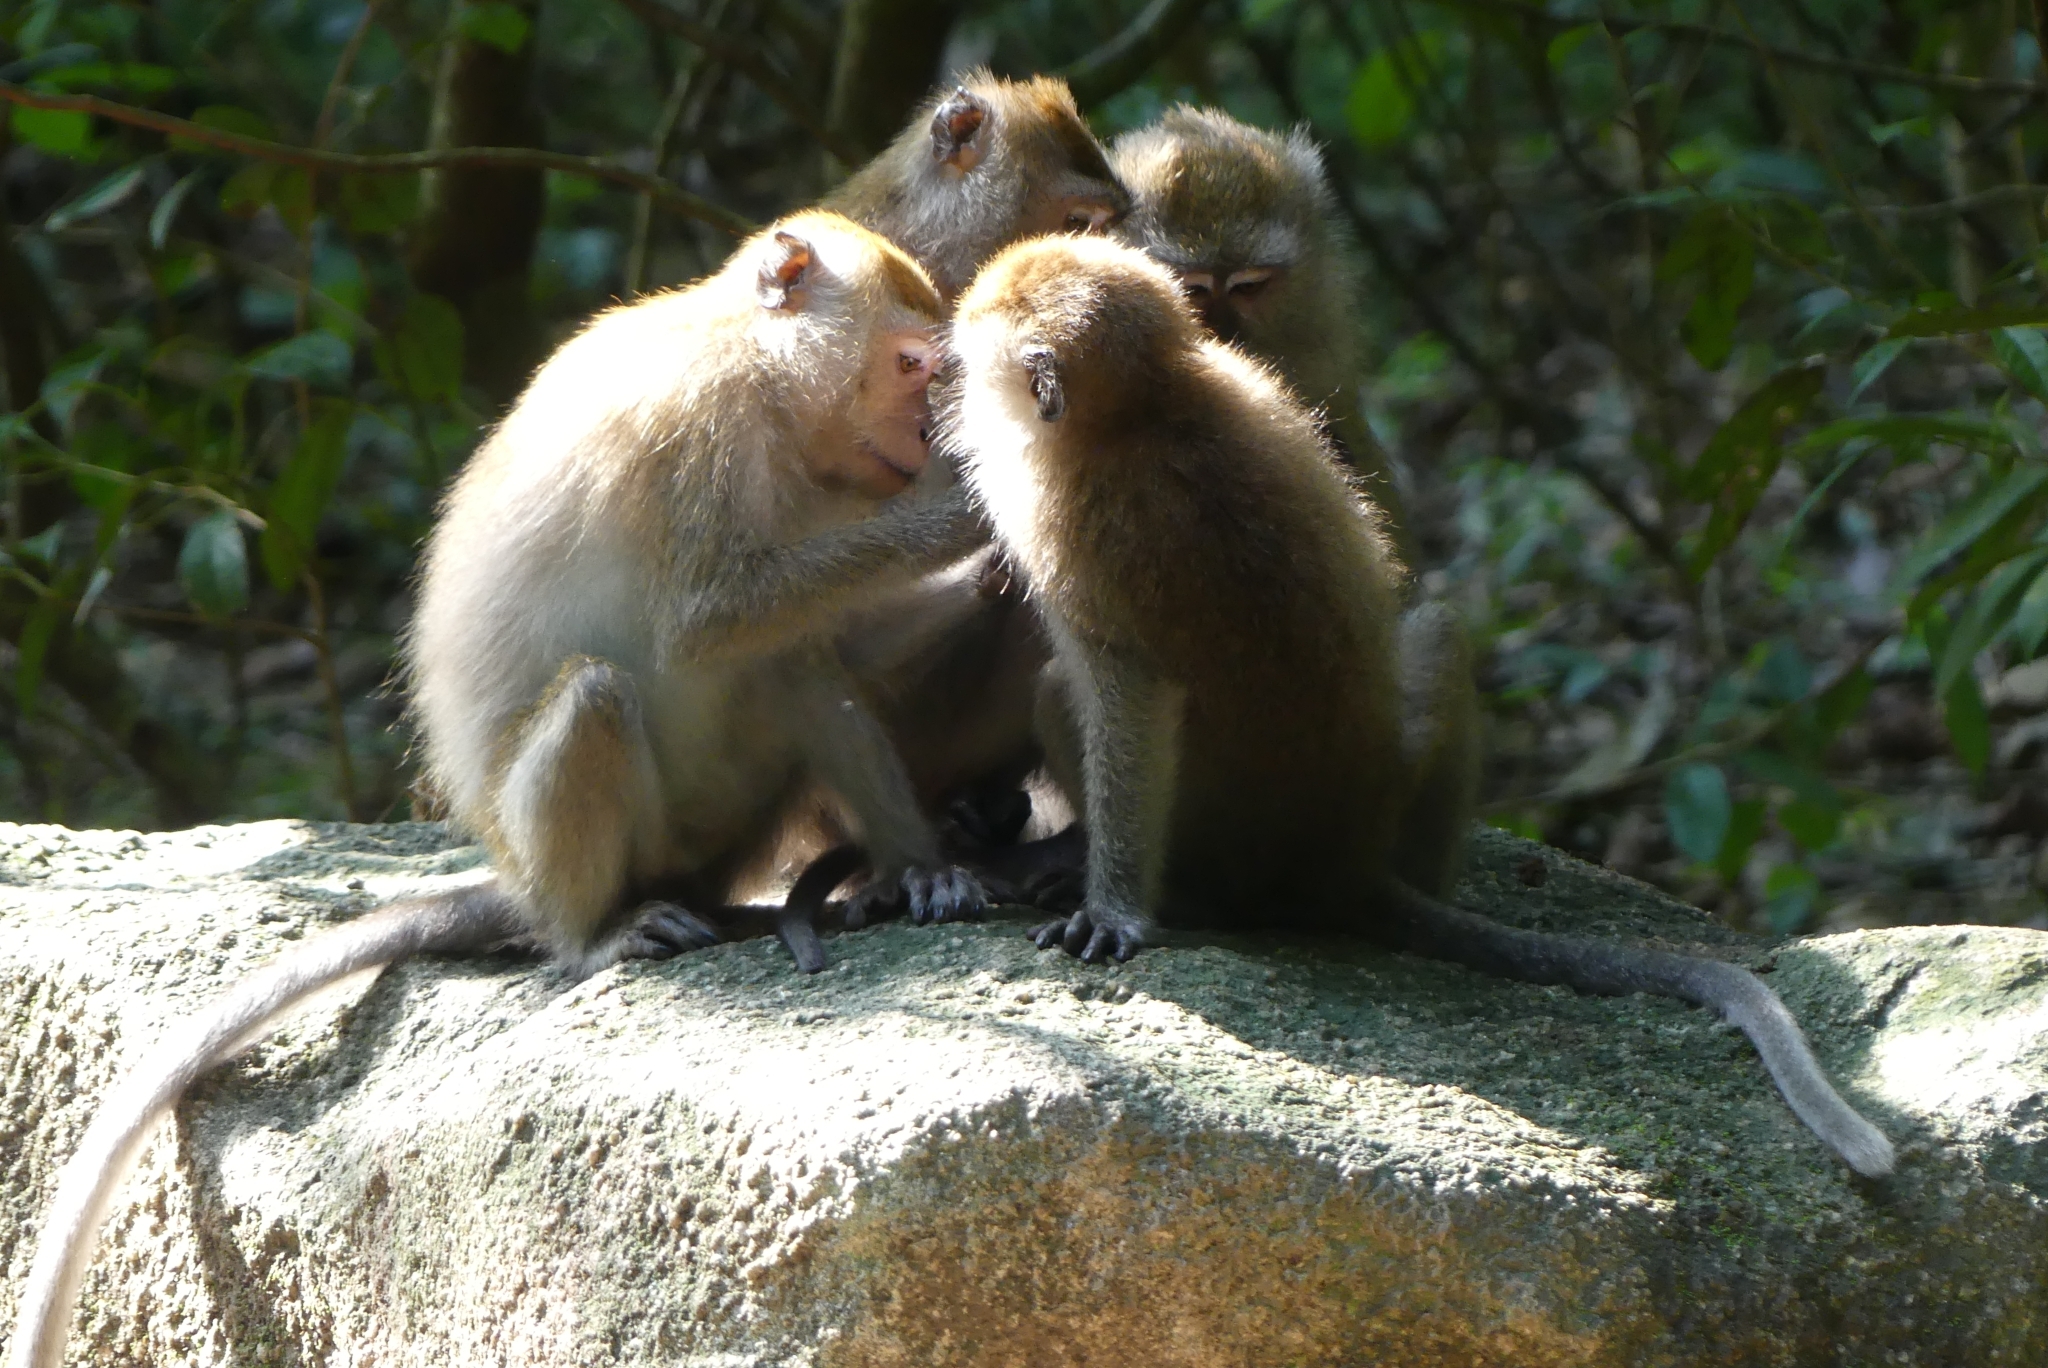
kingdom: Animalia
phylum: Chordata
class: Mammalia
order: Primates
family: Cercopithecidae
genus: Macaca
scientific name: Macaca fascicularis
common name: Crab-eating macaque
